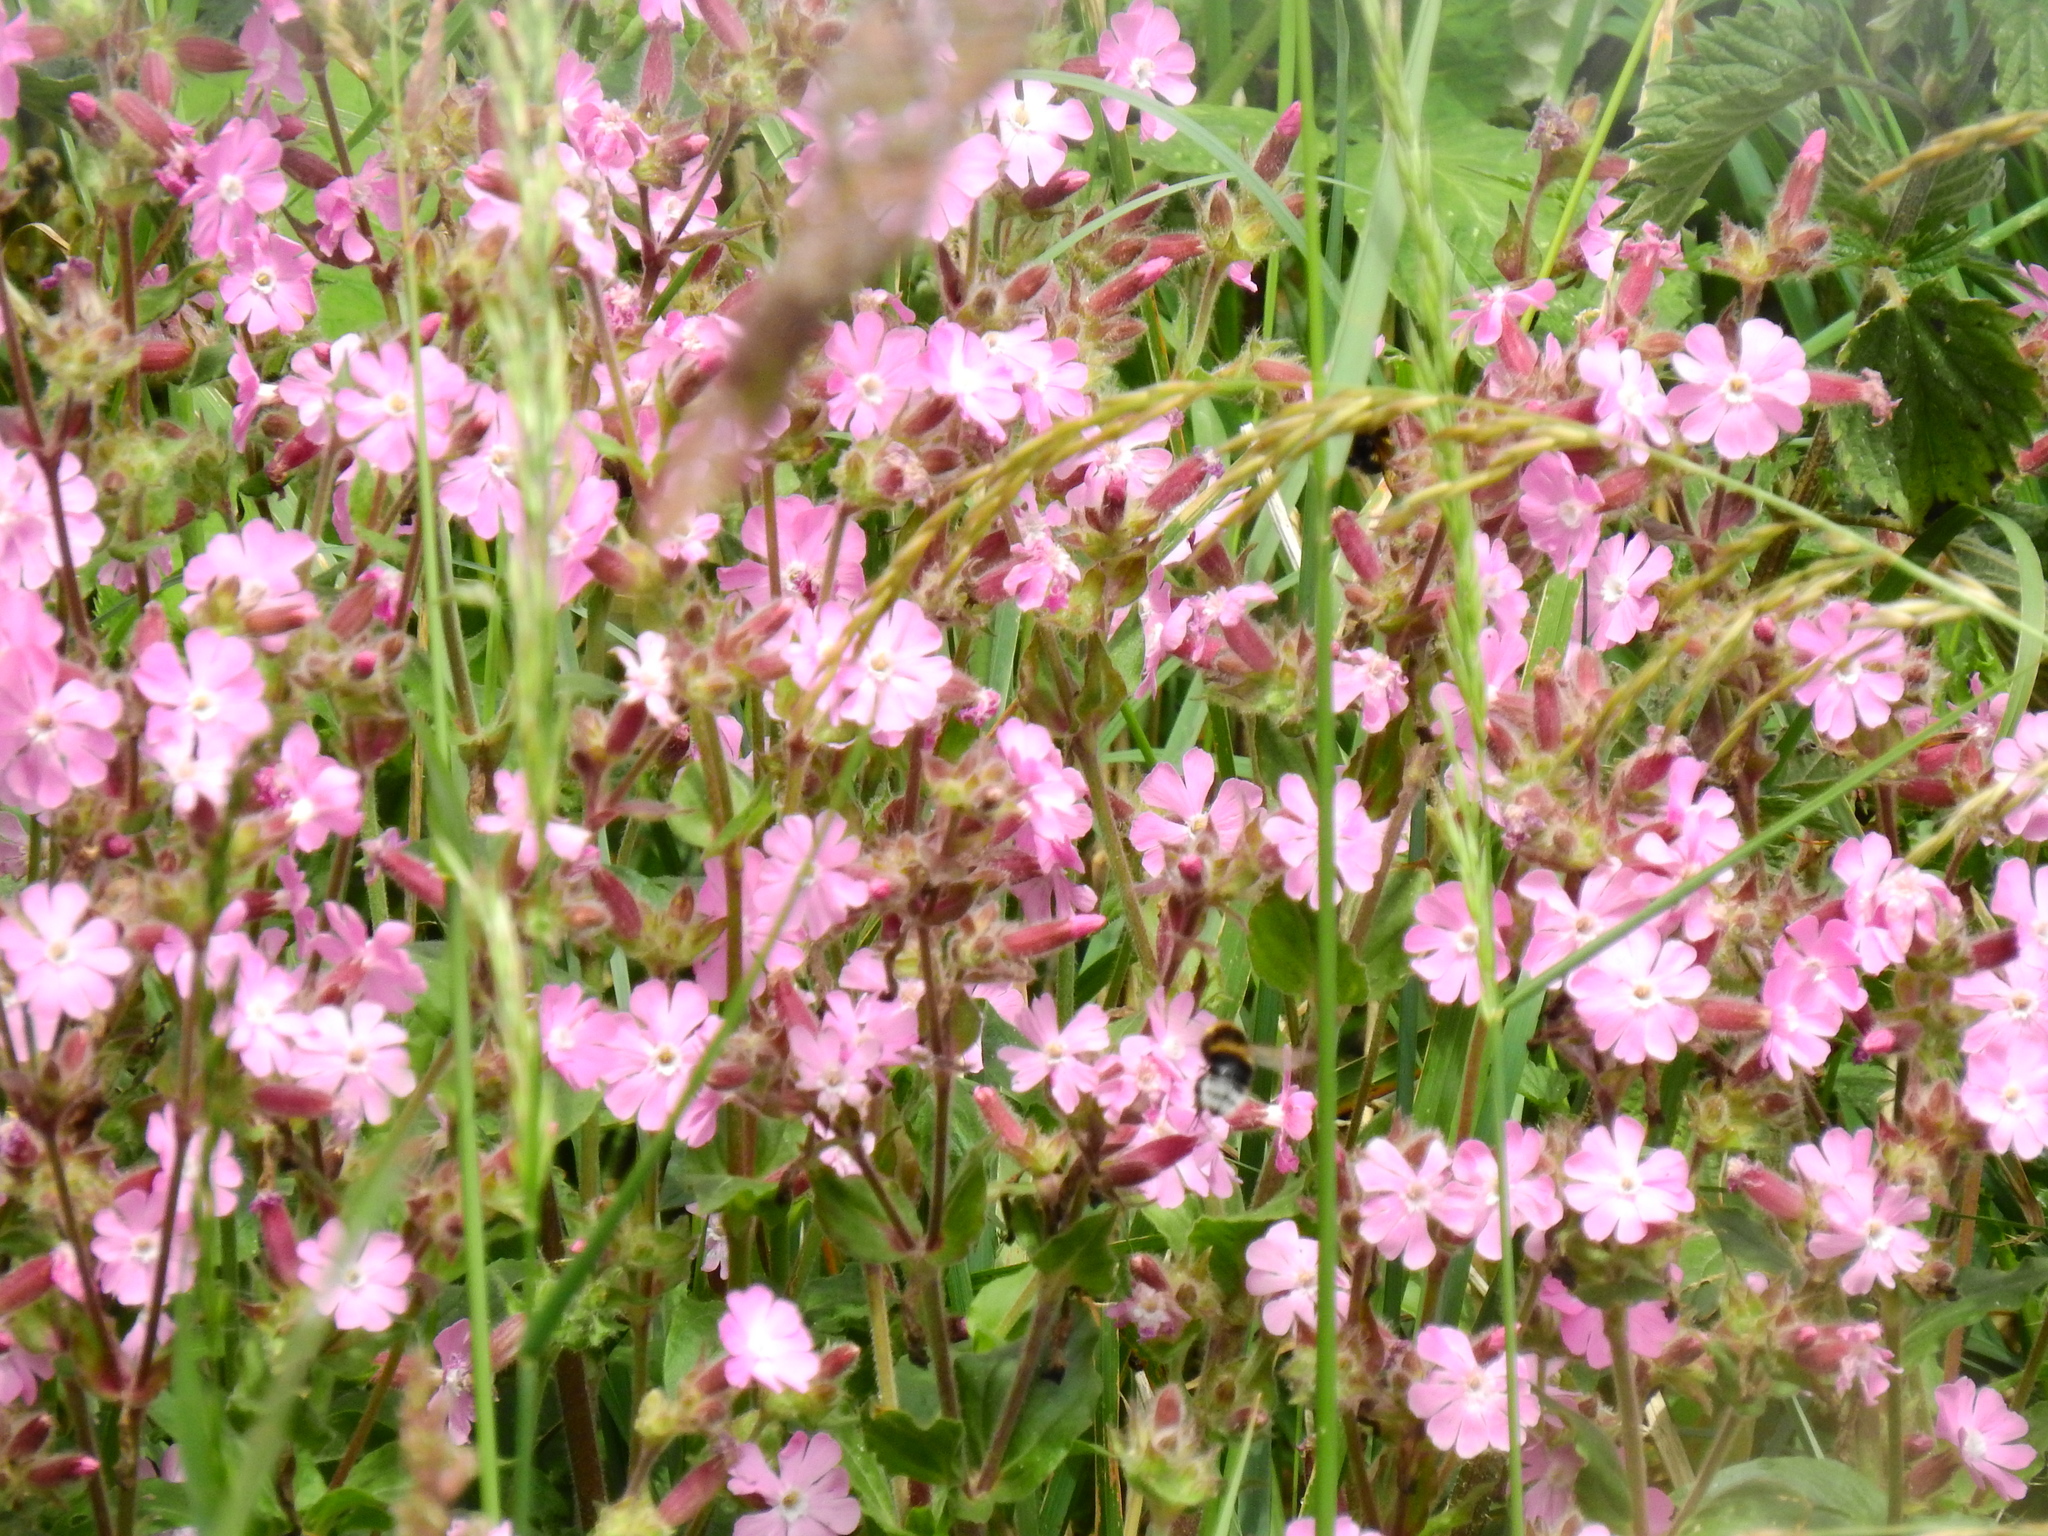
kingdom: Plantae
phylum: Tracheophyta
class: Magnoliopsida
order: Caryophyllales
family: Caryophyllaceae
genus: Silene
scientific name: Silene dioica
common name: Red campion
